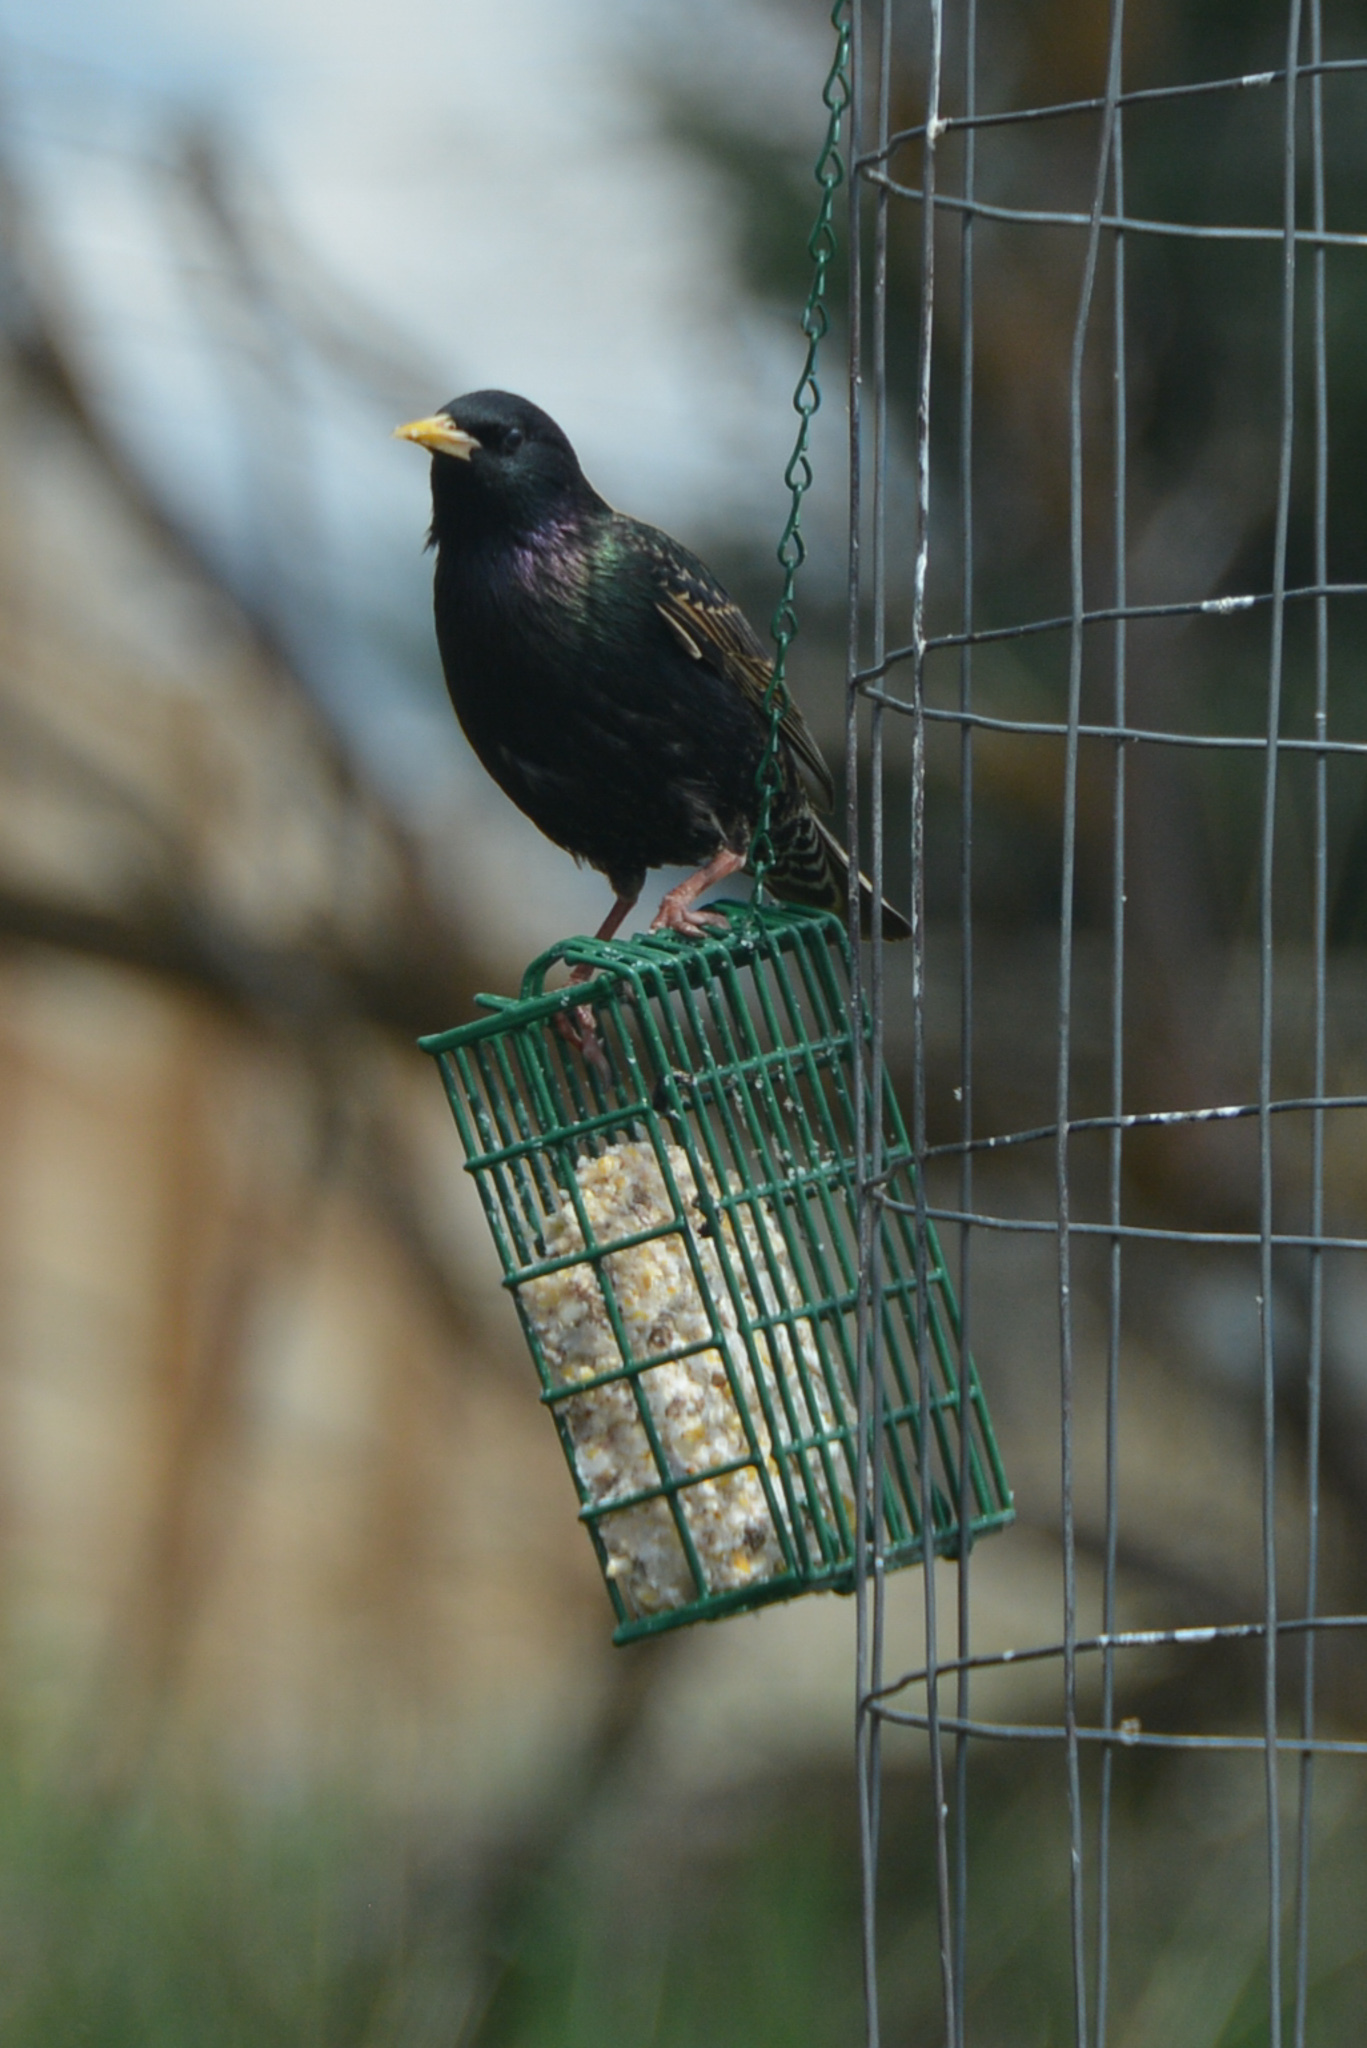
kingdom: Animalia
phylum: Chordata
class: Aves
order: Passeriformes
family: Sturnidae
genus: Sturnus
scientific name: Sturnus vulgaris
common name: Common starling
